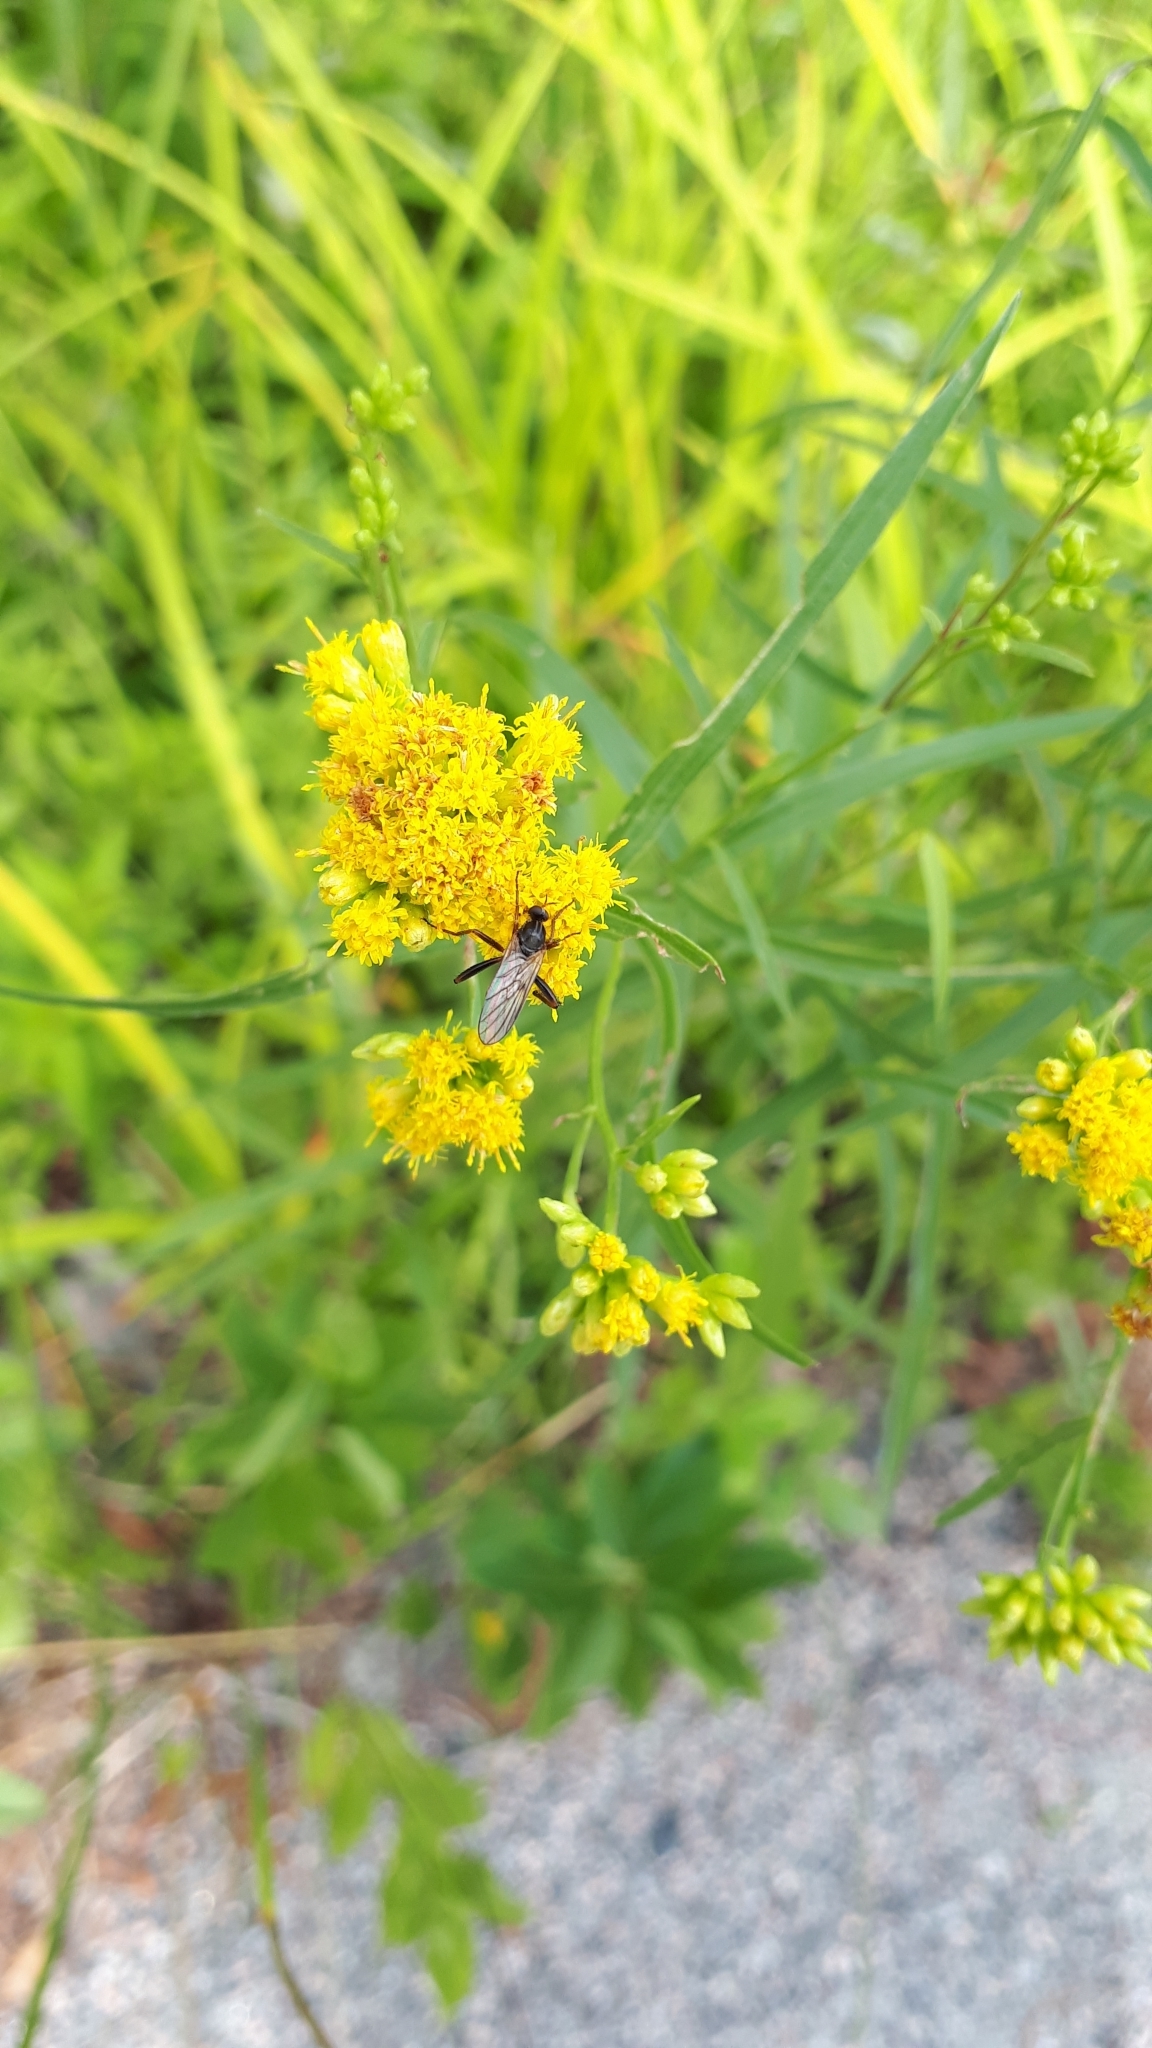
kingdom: Plantae
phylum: Tracheophyta
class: Magnoliopsida
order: Asterales
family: Asteraceae
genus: Euthamia
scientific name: Euthamia graminifolia
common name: Common goldentop
